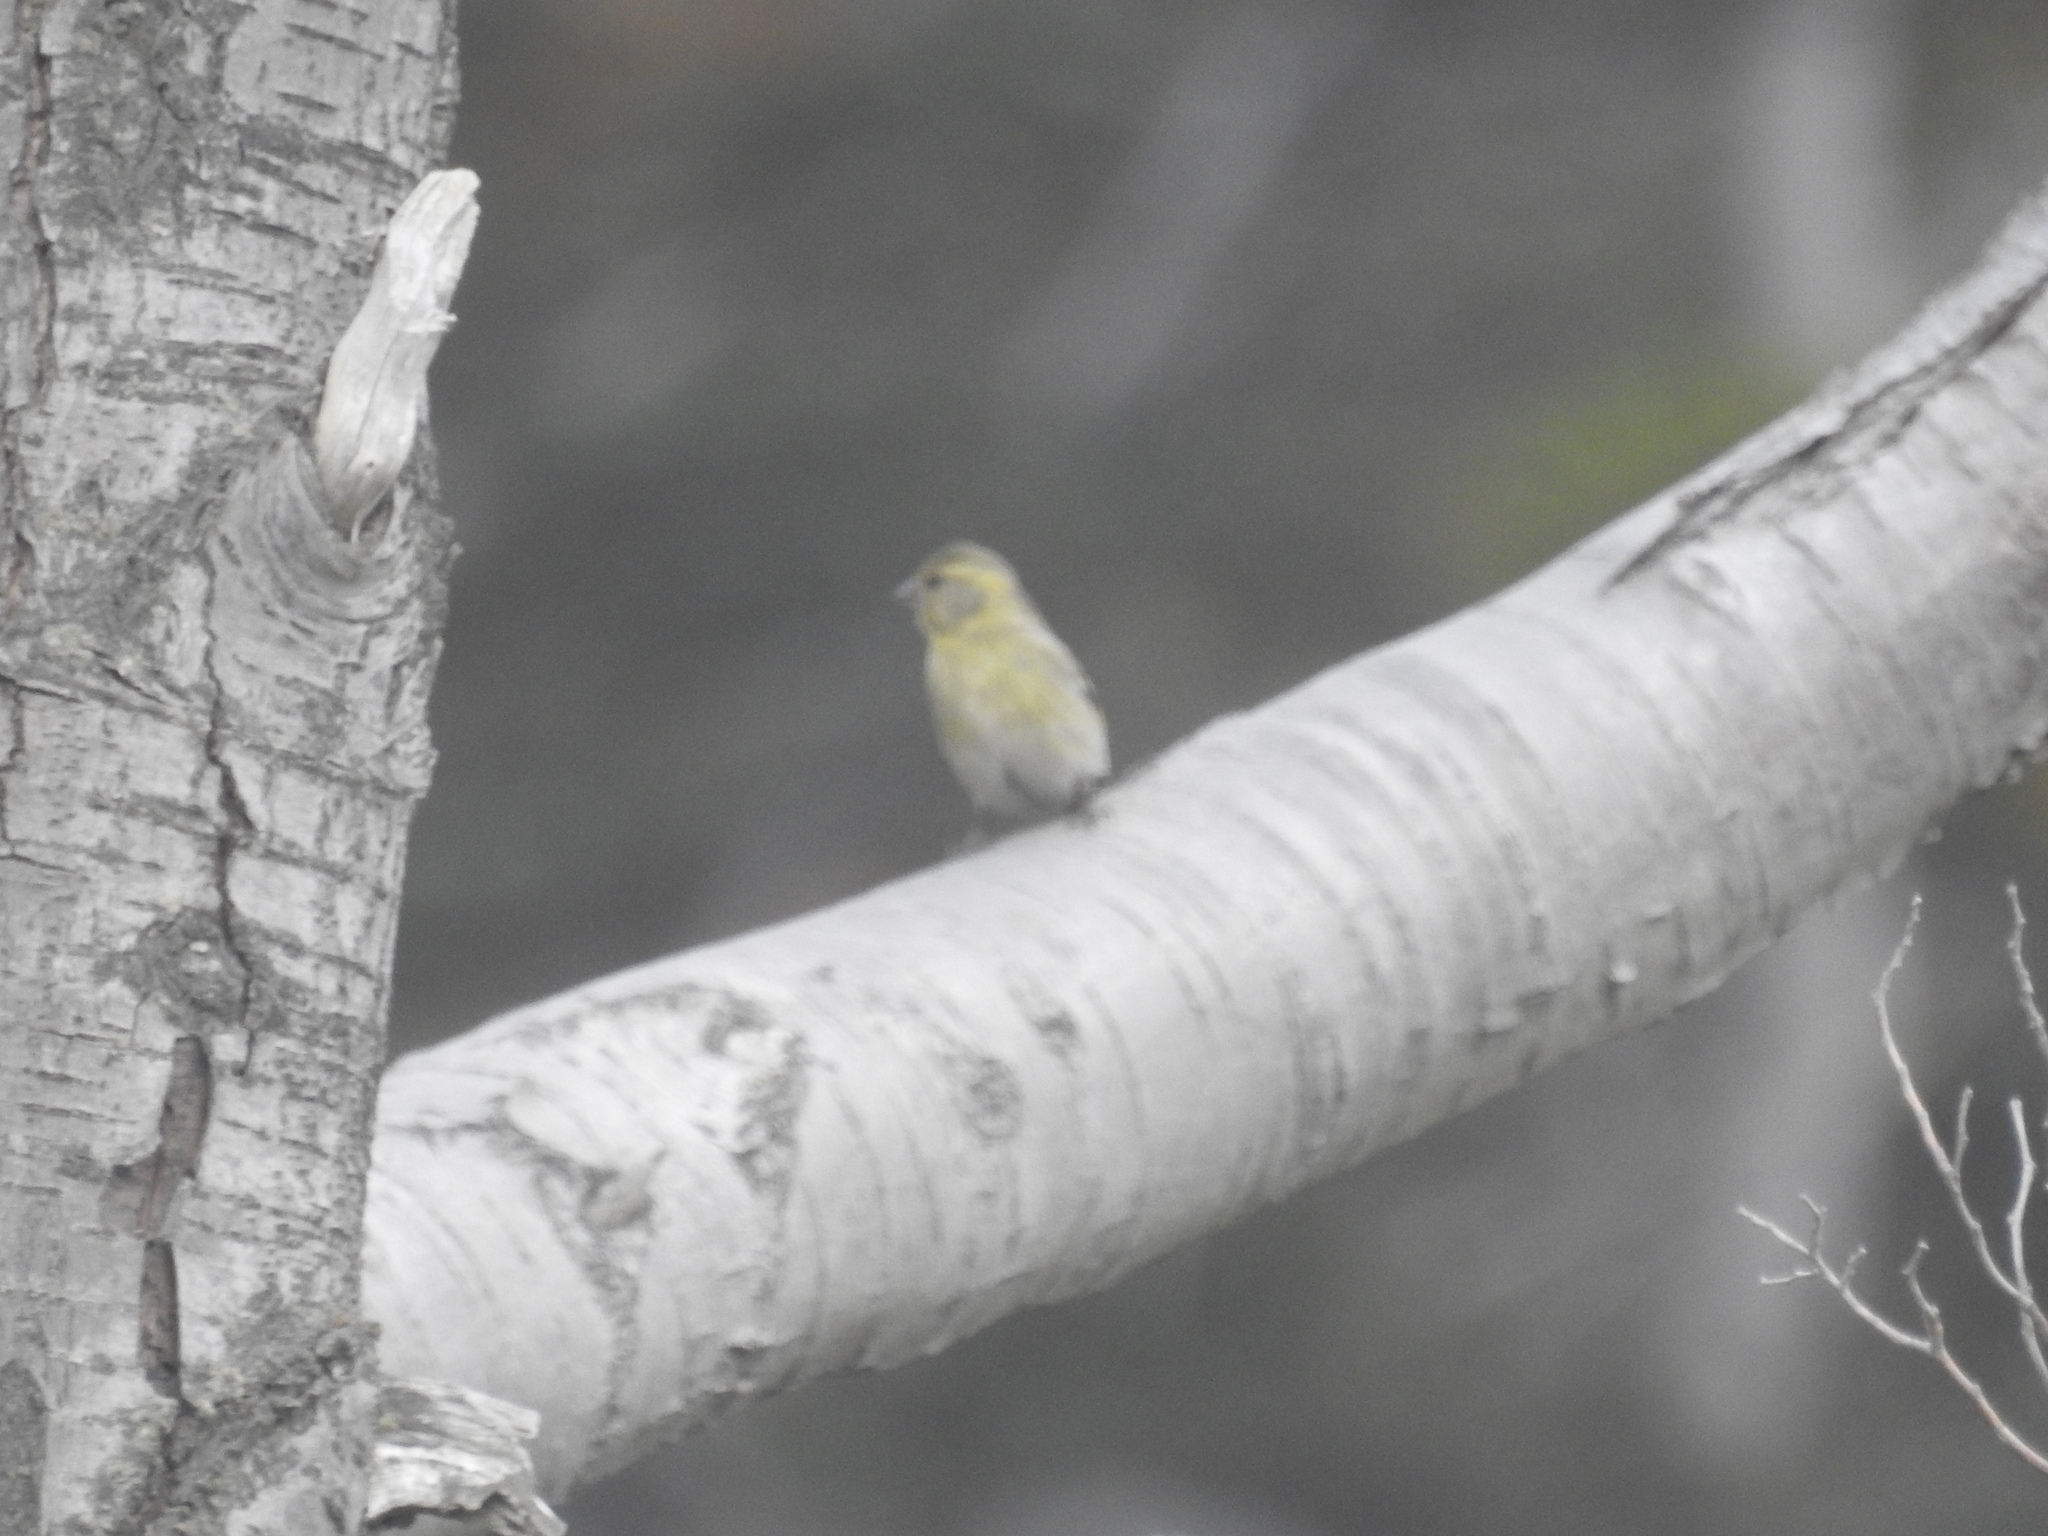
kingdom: Animalia
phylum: Chordata
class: Aves
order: Passeriformes
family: Fringillidae
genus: Spinus
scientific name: Spinus barbatus
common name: Black-chinned siskin
